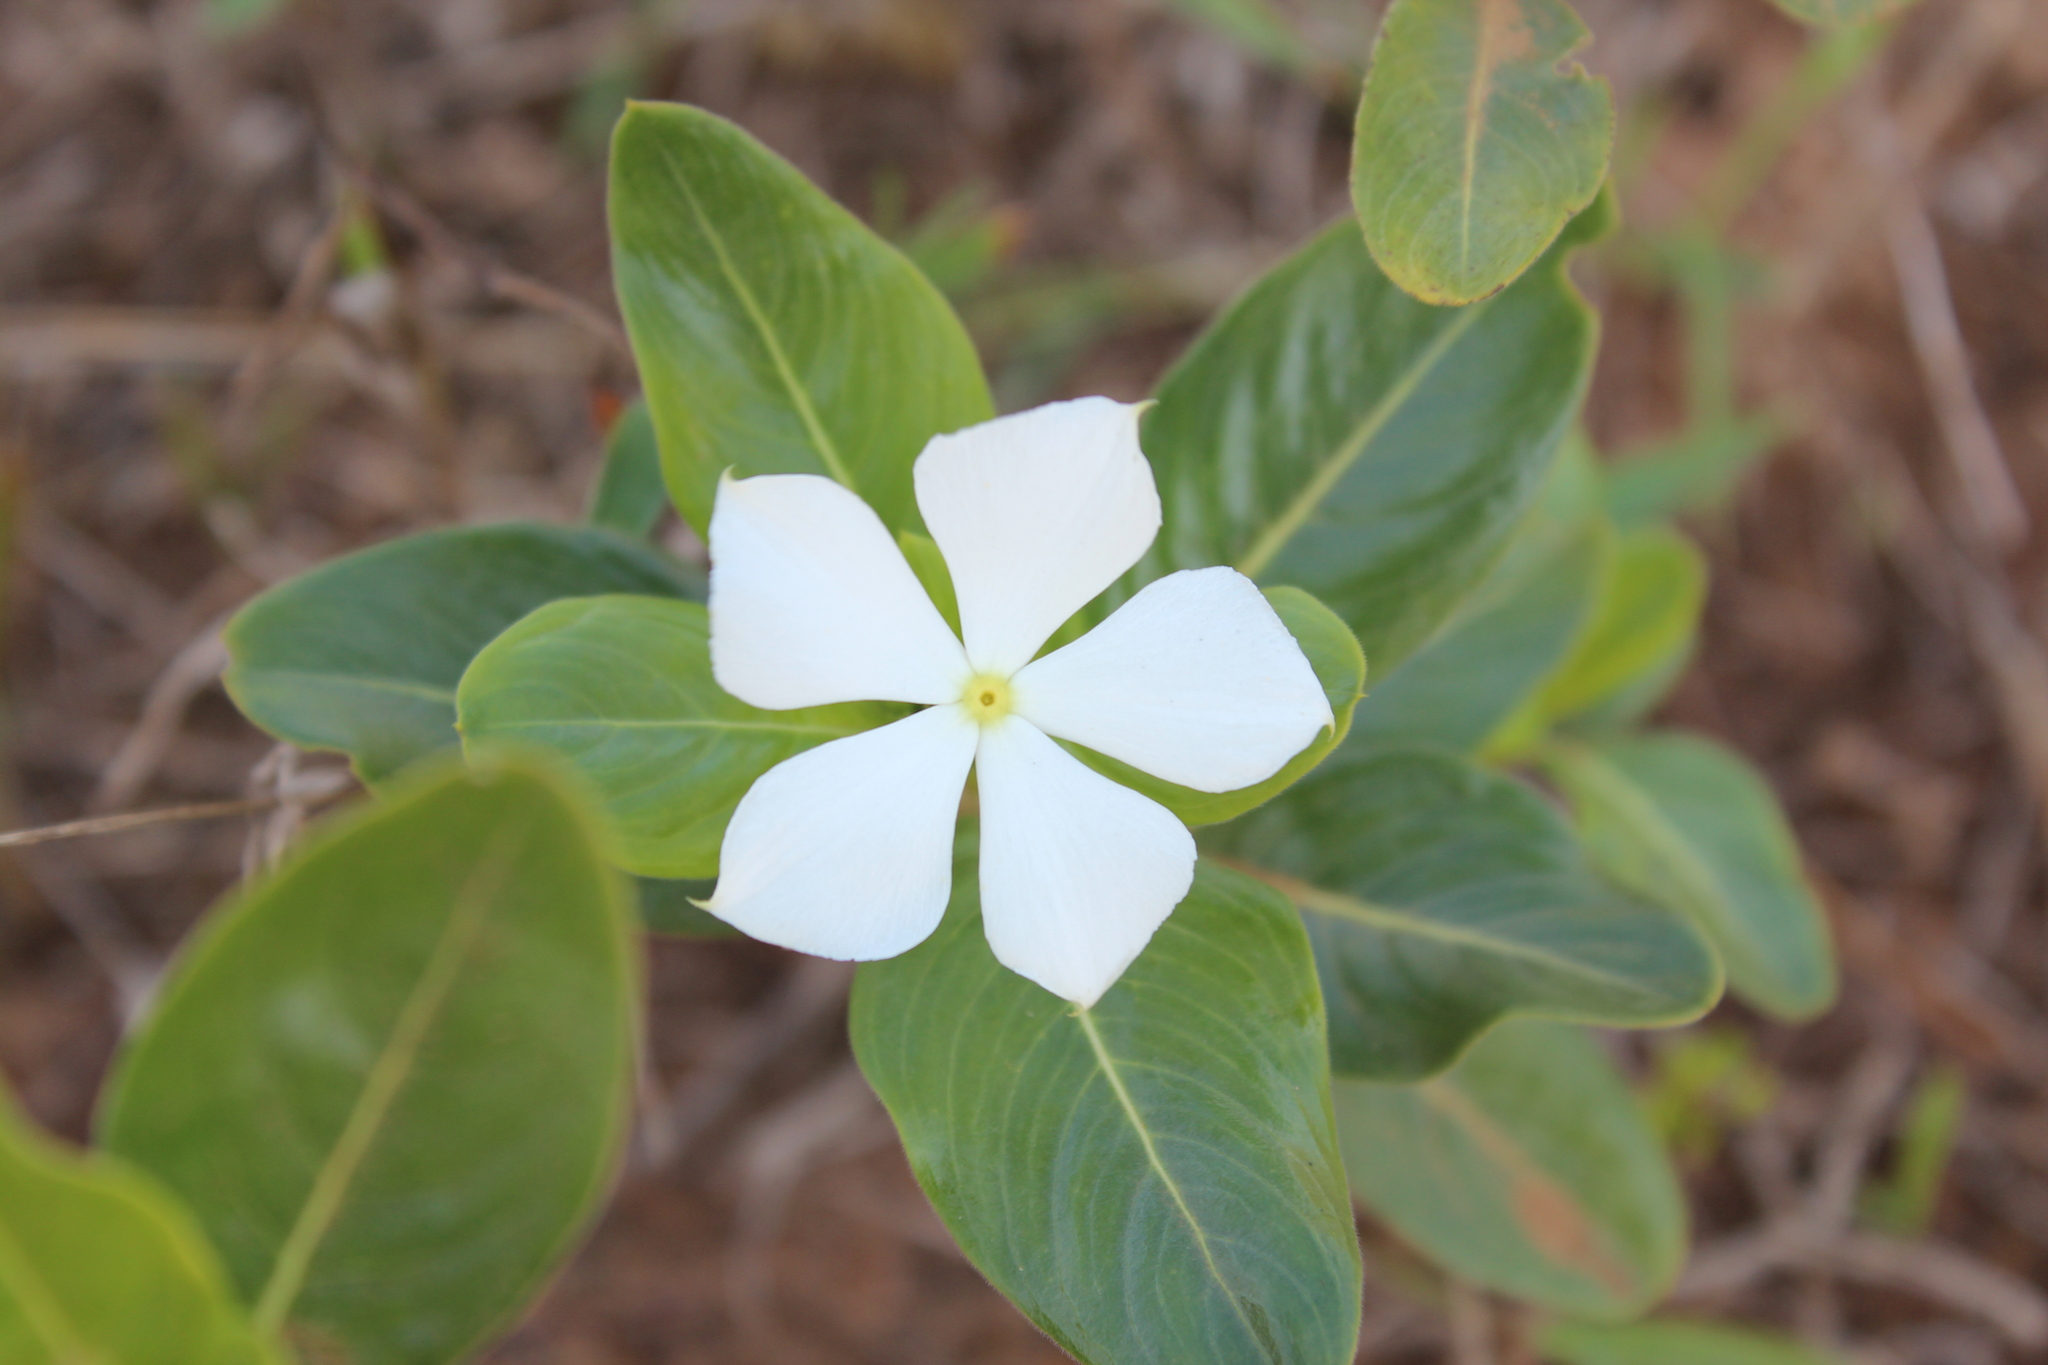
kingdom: Plantae
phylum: Tracheophyta
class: Magnoliopsida
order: Gentianales
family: Apocynaceae
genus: Catharanthus
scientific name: Catharanthus roseus
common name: Madagascar periwinkle
